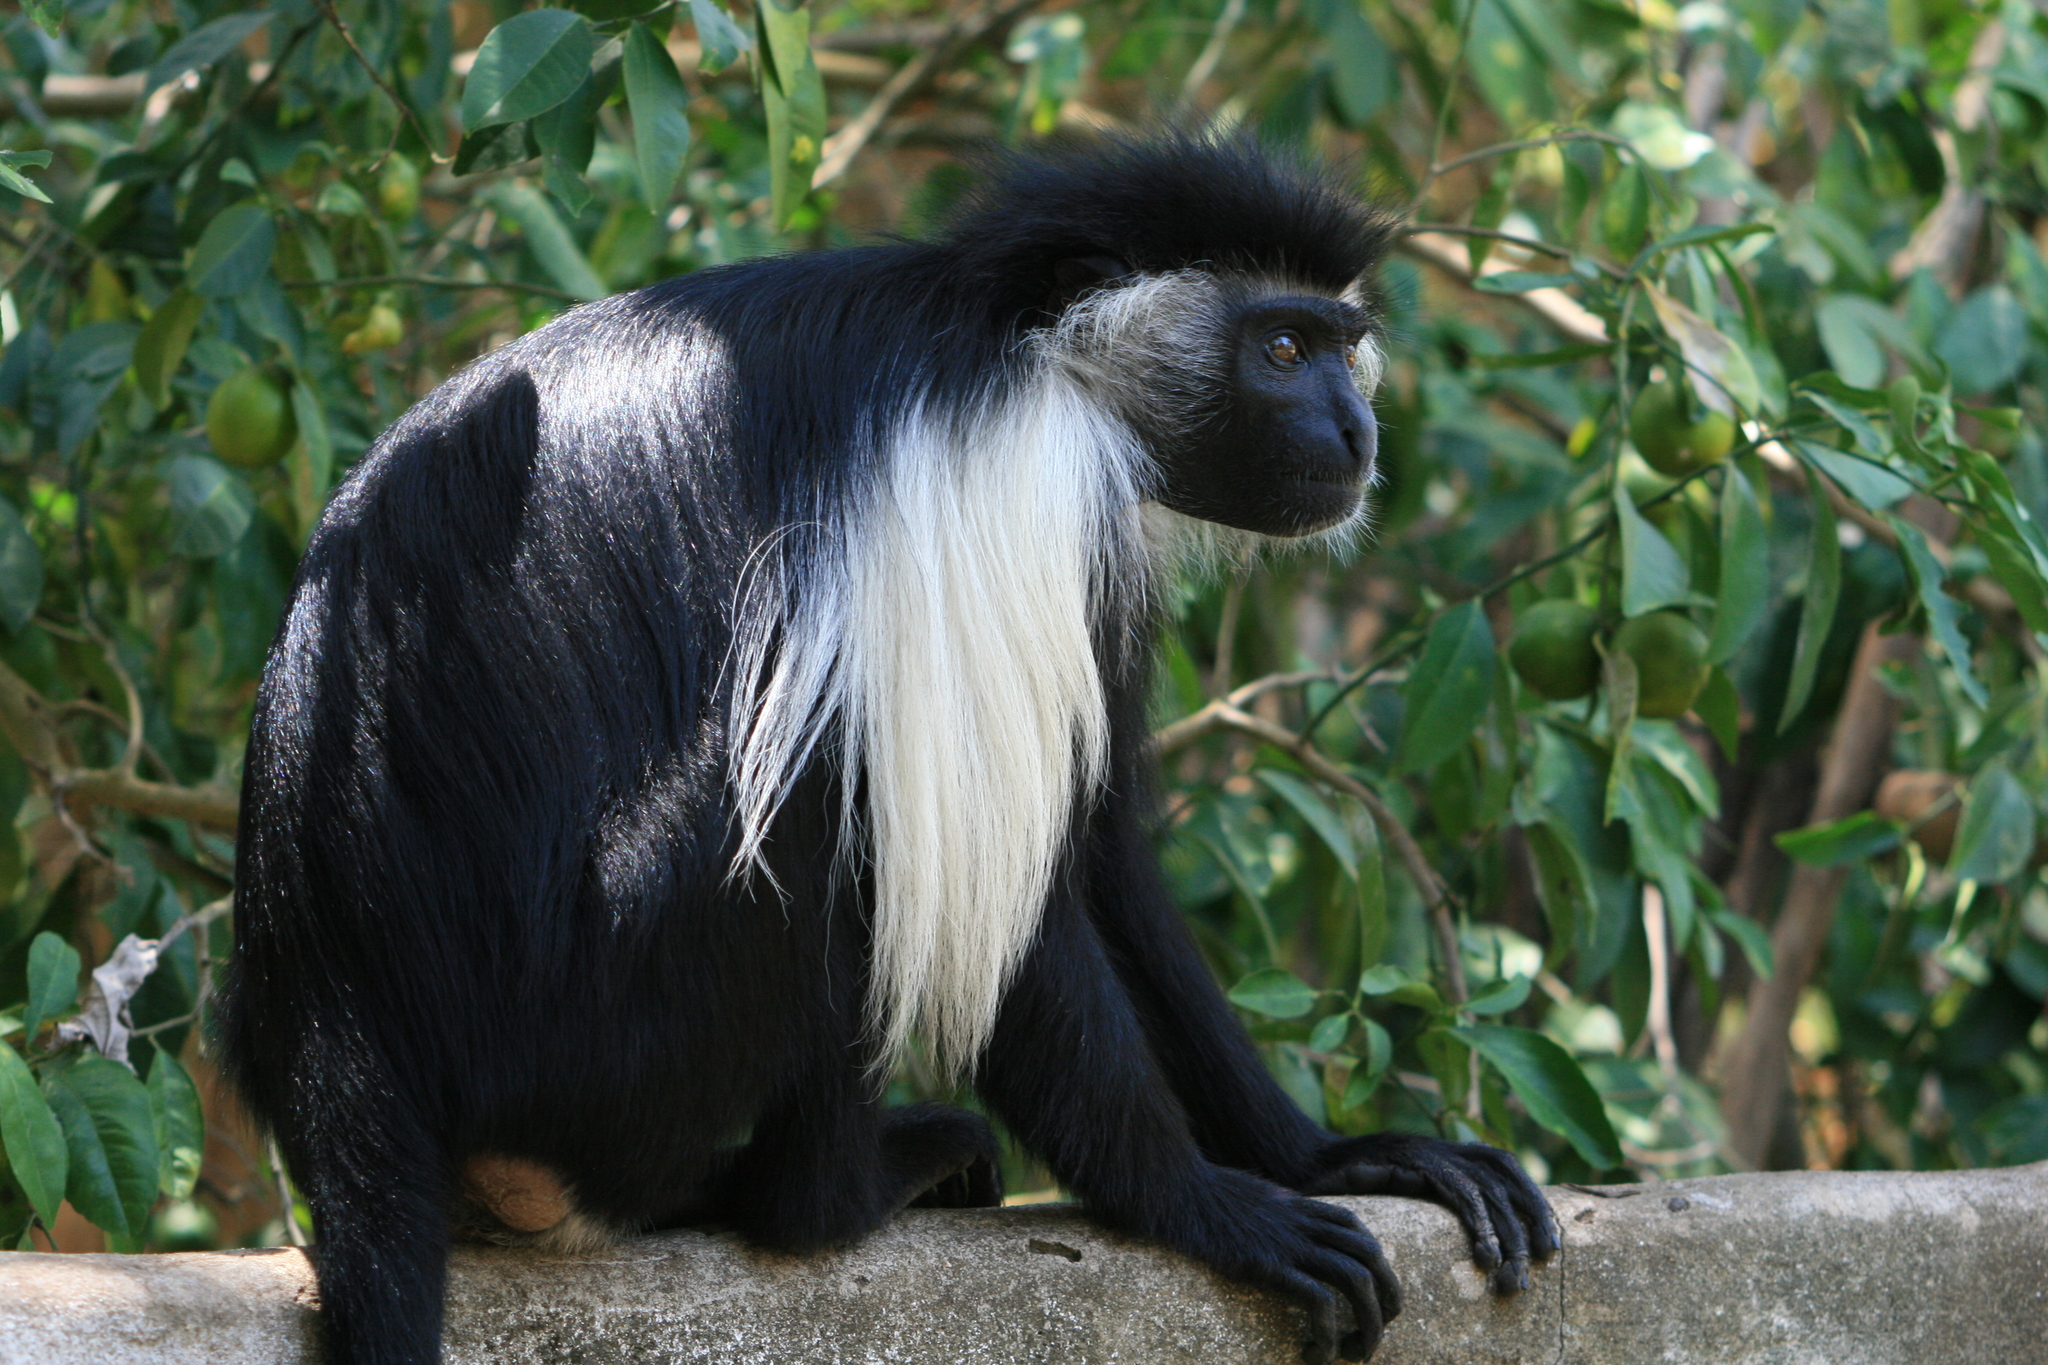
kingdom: Animalia
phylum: Chordata
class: Mammalia
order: Primates
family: Cercopithecidae
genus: Colobus
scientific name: Colobus angolensis
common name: Angola colobus
